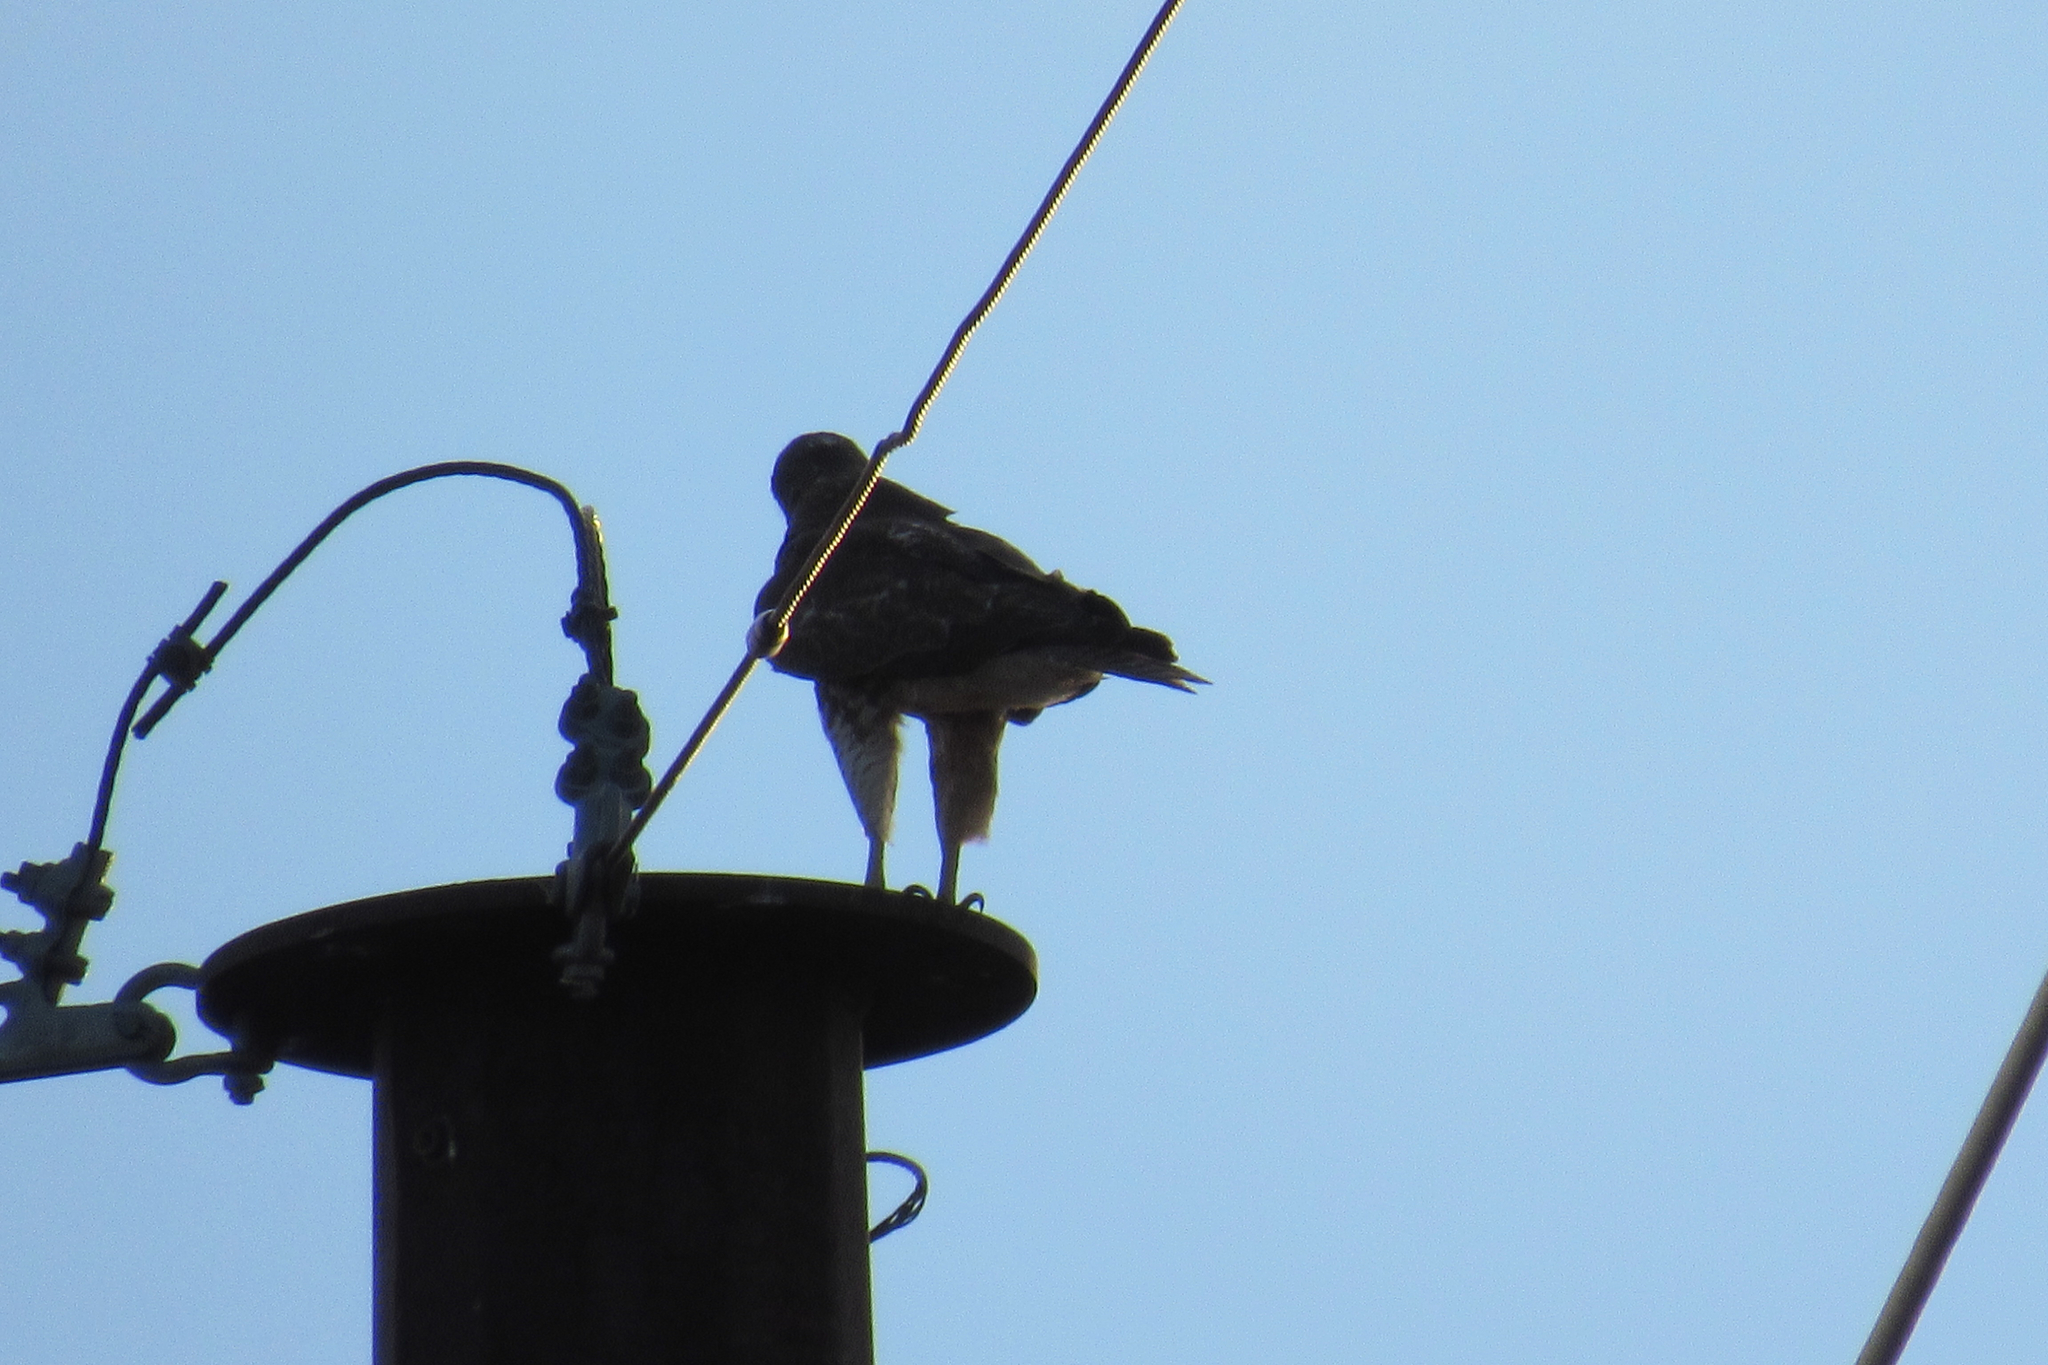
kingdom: Animalia
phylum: Chordata
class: Aves
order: Accipitriformes
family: Accipitridae
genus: Buteo
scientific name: Buteo jamaicensis
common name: Red-tailed hawk
